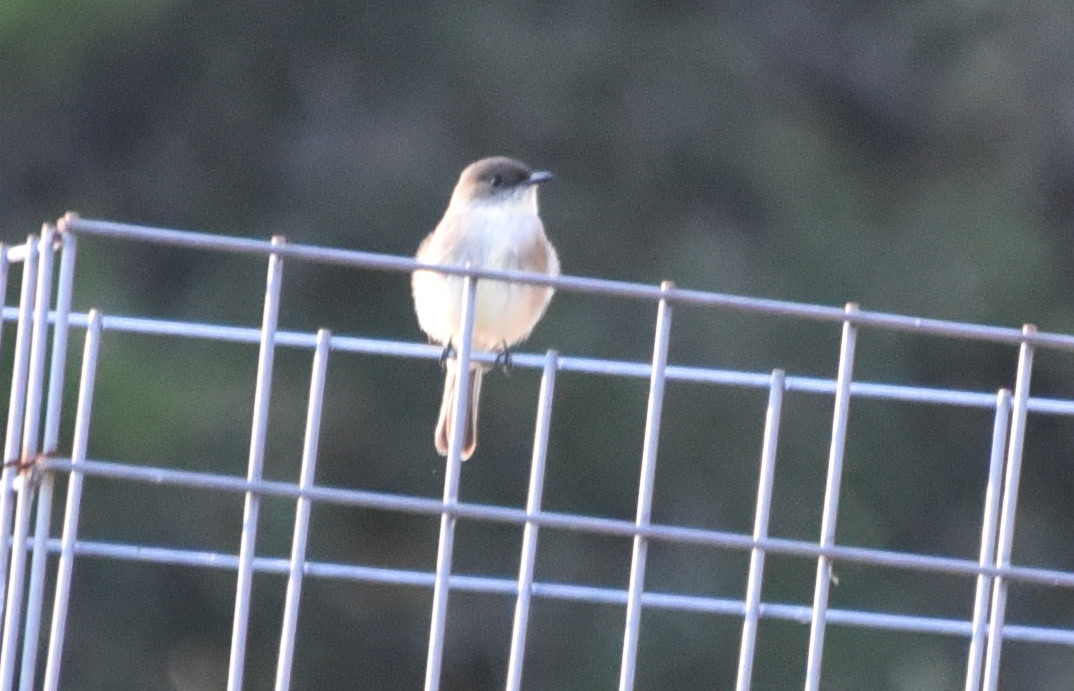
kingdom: Animalia
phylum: Chordata
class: Aves
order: Passeriformes
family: Tyrannidae
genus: Sayornis
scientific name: Sayornis phoebe
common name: Eastern phoebe
